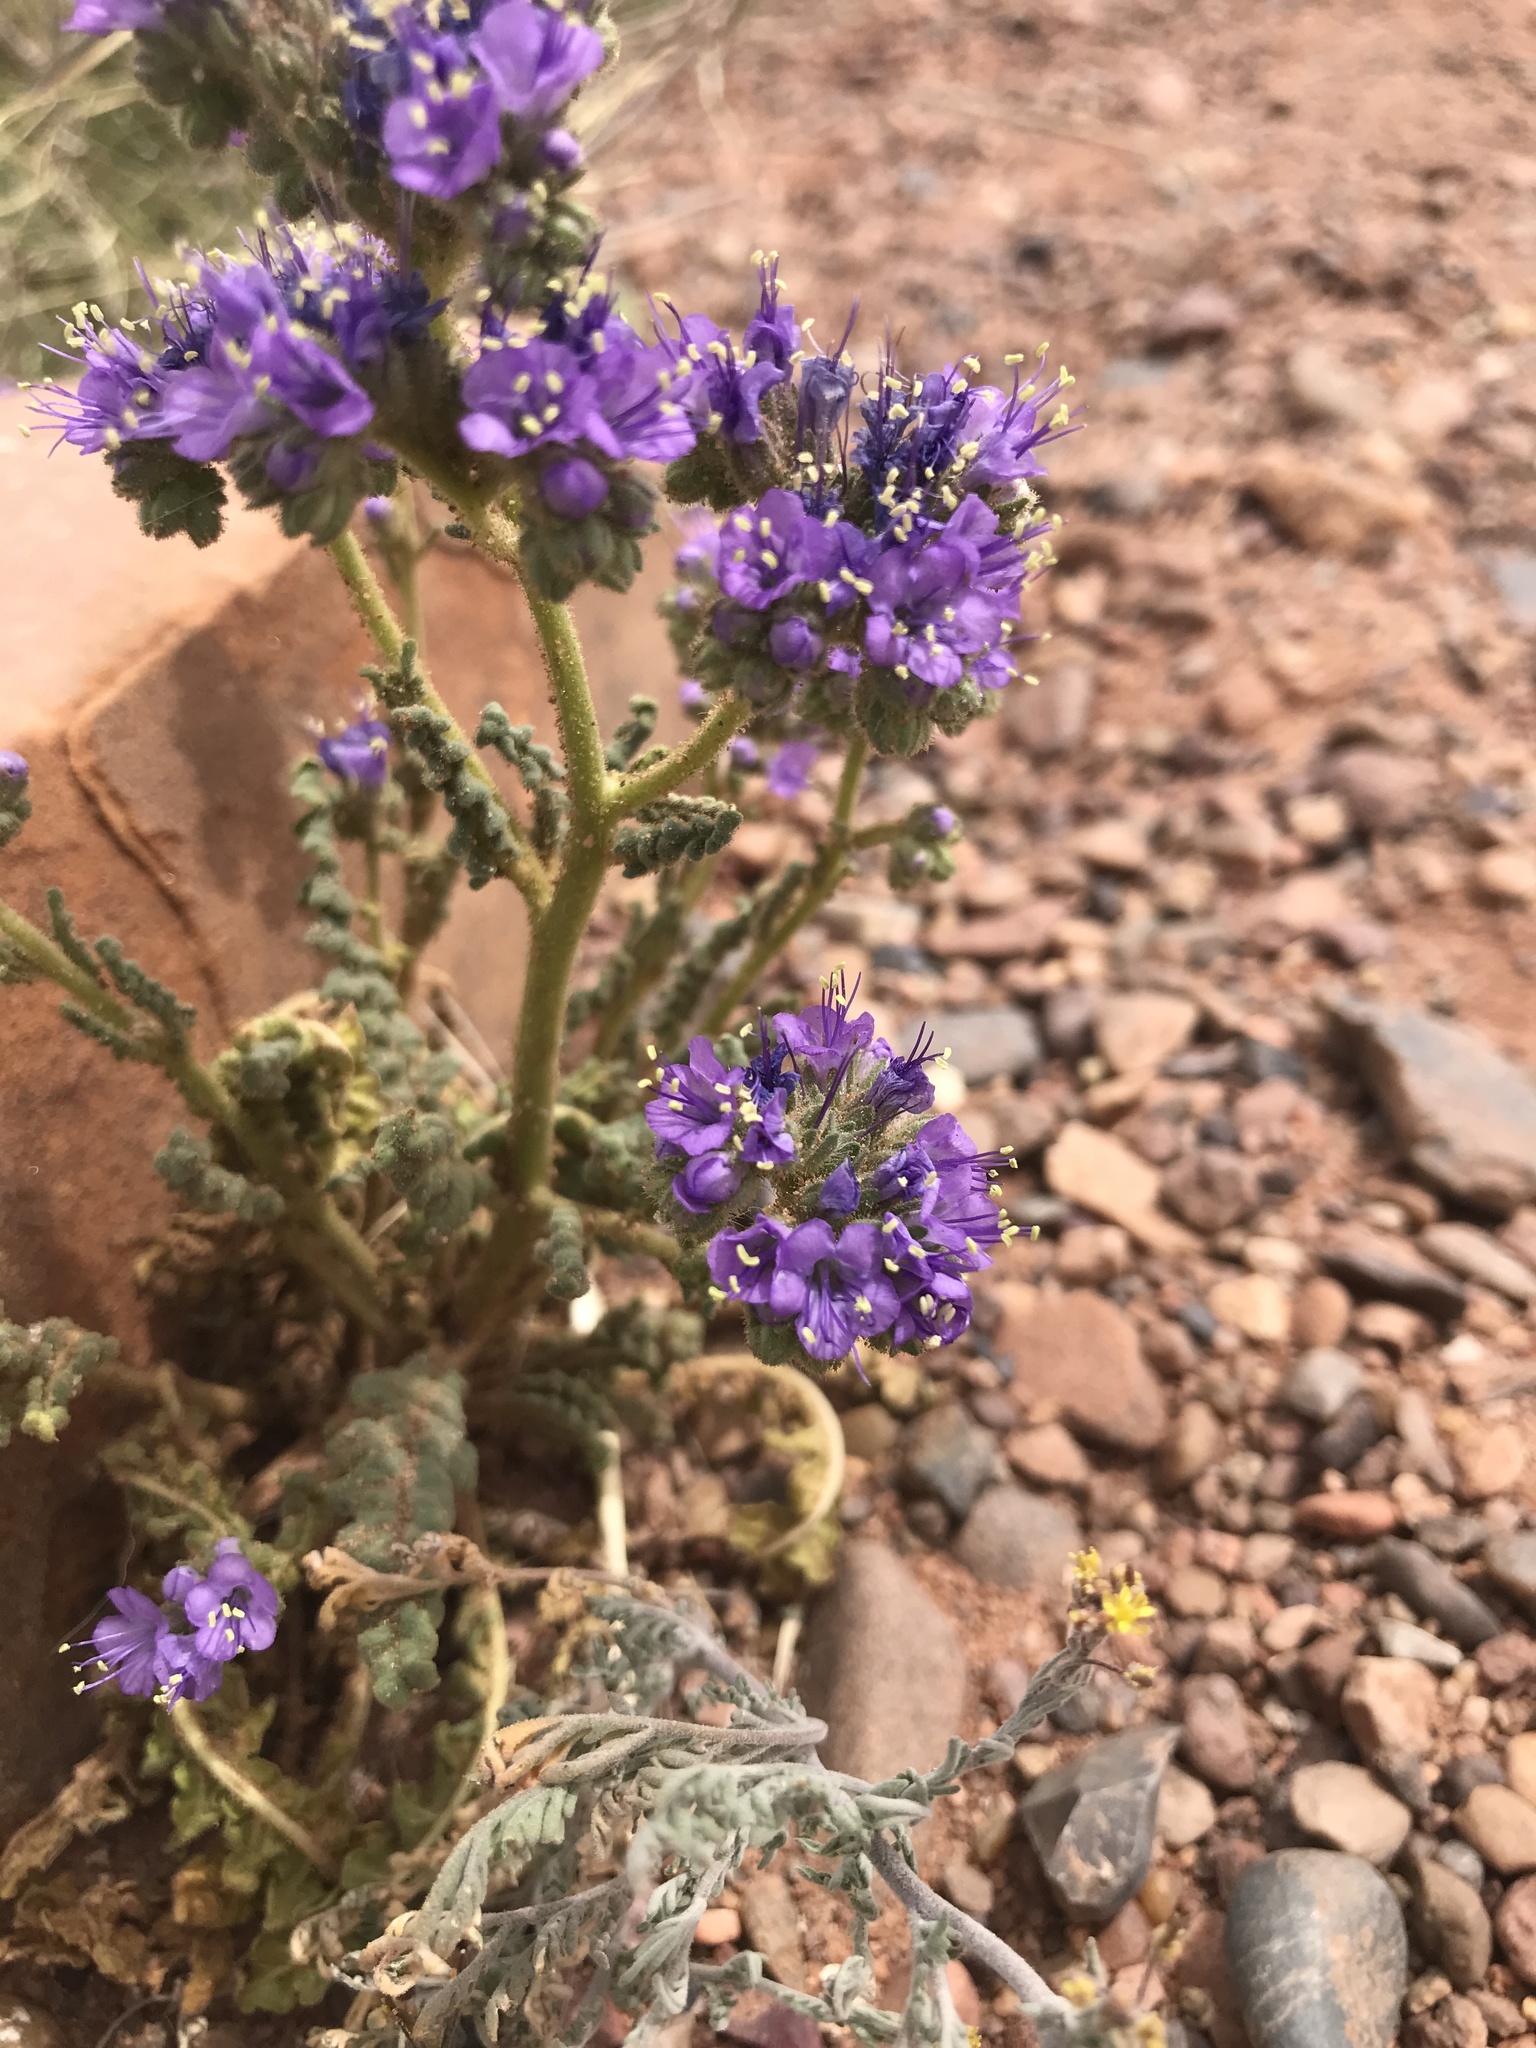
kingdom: Plantae
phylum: Tracheophyta
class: Magnoliopsida
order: Boraginales
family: Hydrophyllaceae
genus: Phacelia
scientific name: Phacelia corrugata
